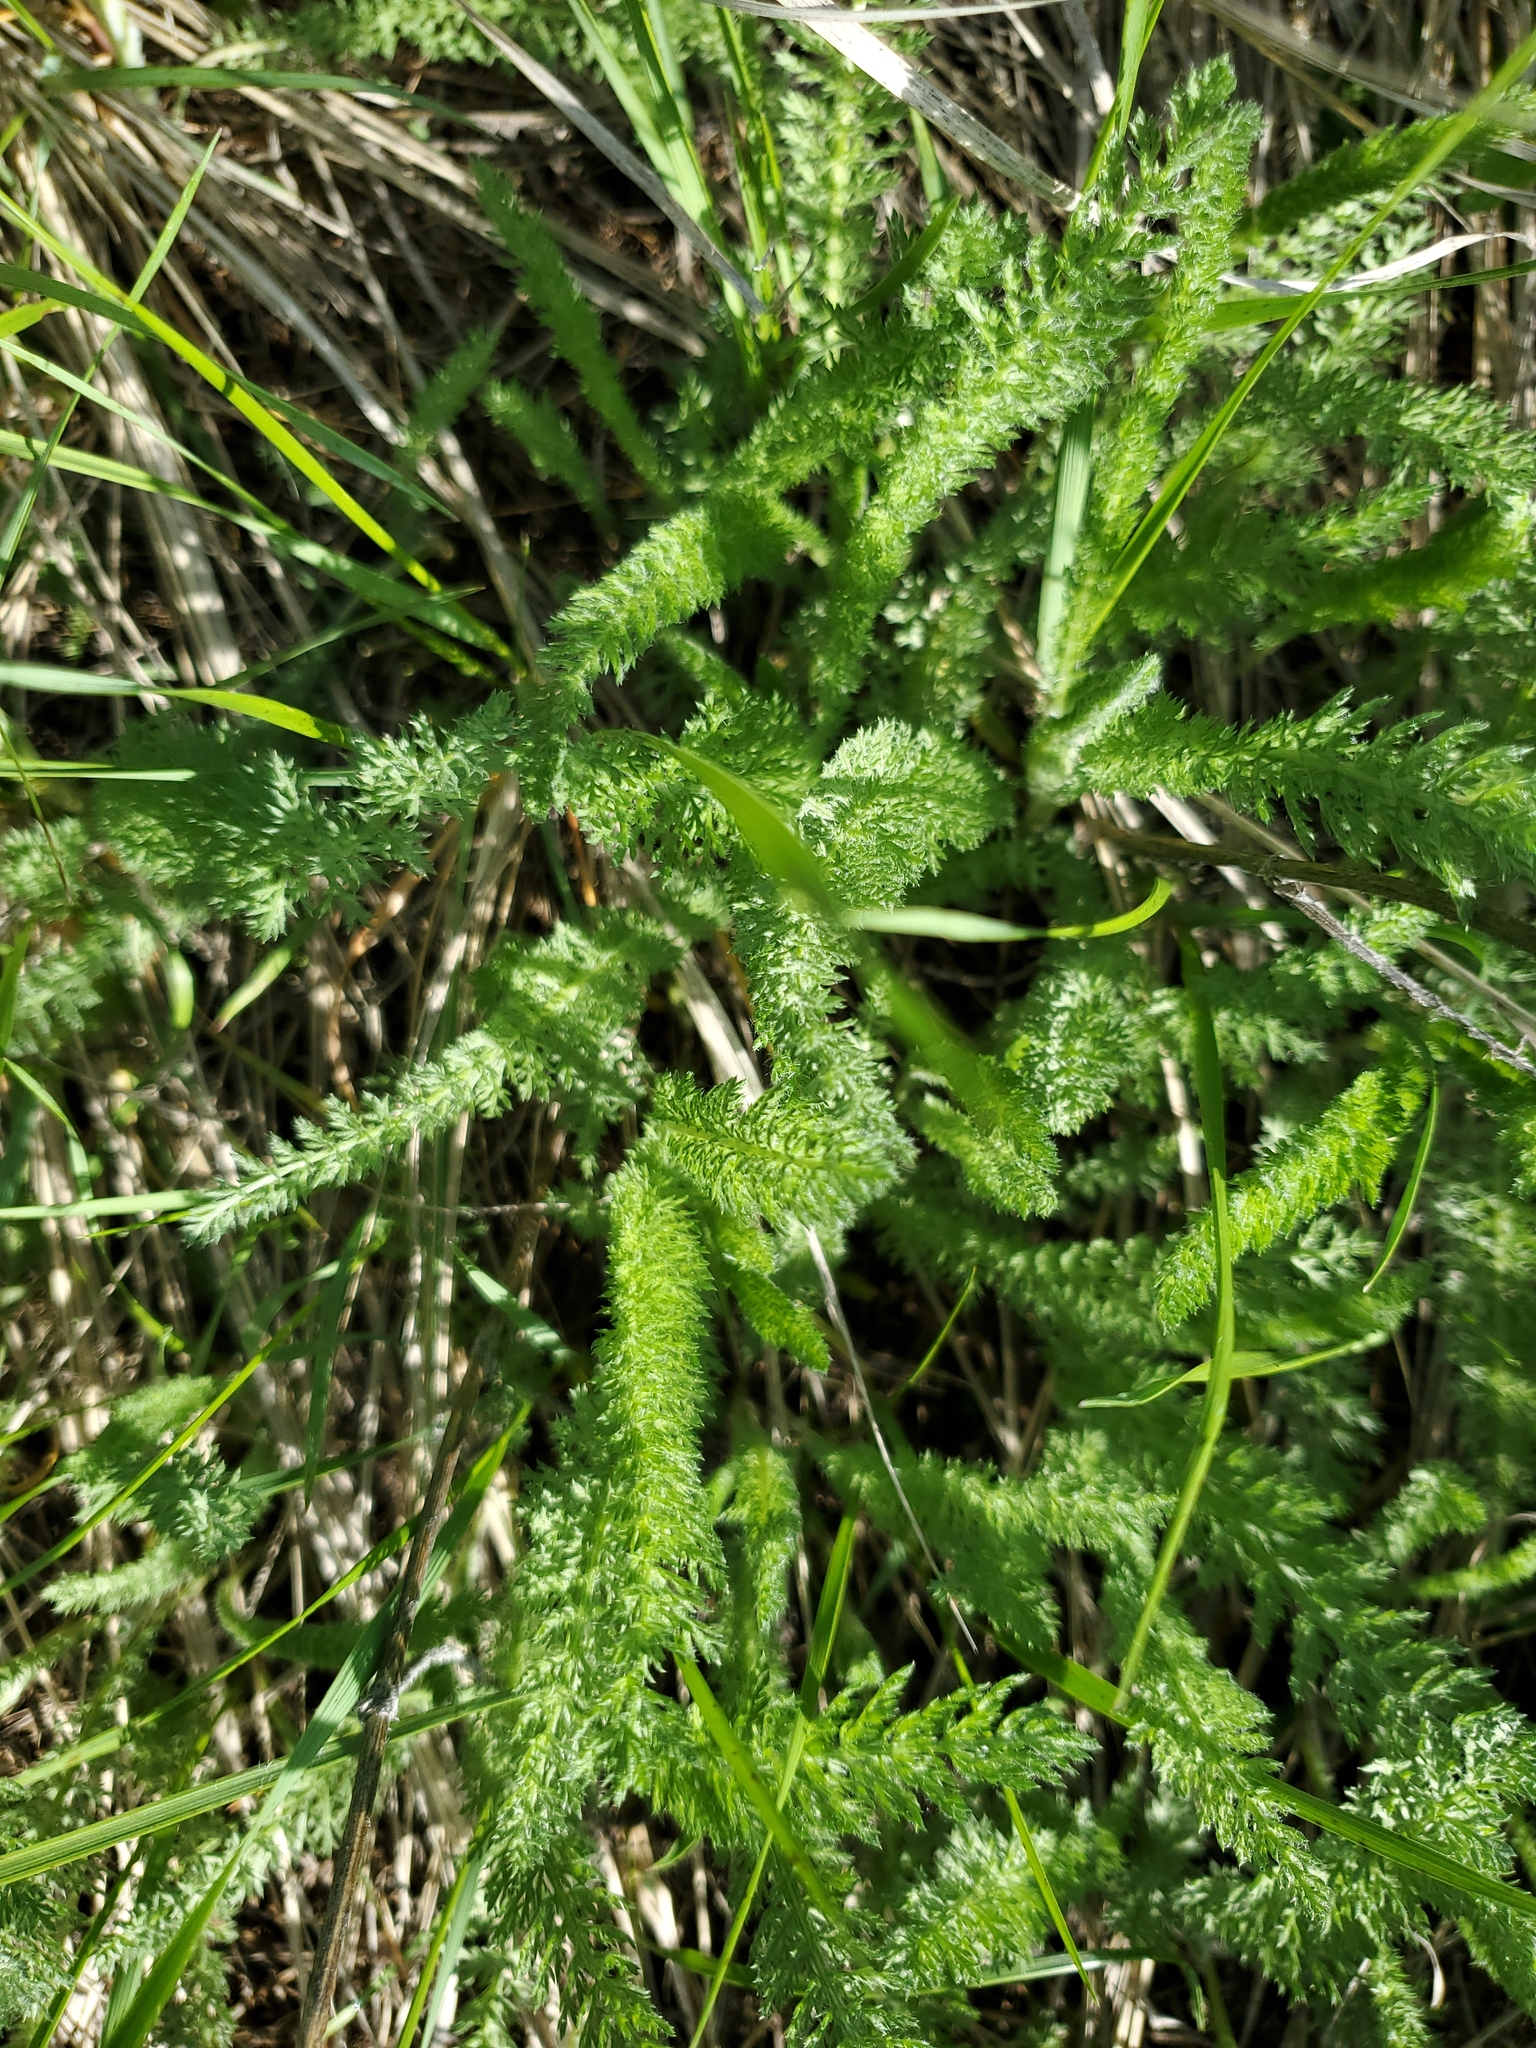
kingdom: Plantae
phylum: Tracheophyta
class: Magnoliopsida
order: Asterales
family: Asteraceae
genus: Achillea
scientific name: Achillea millefolium
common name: Yarrow
